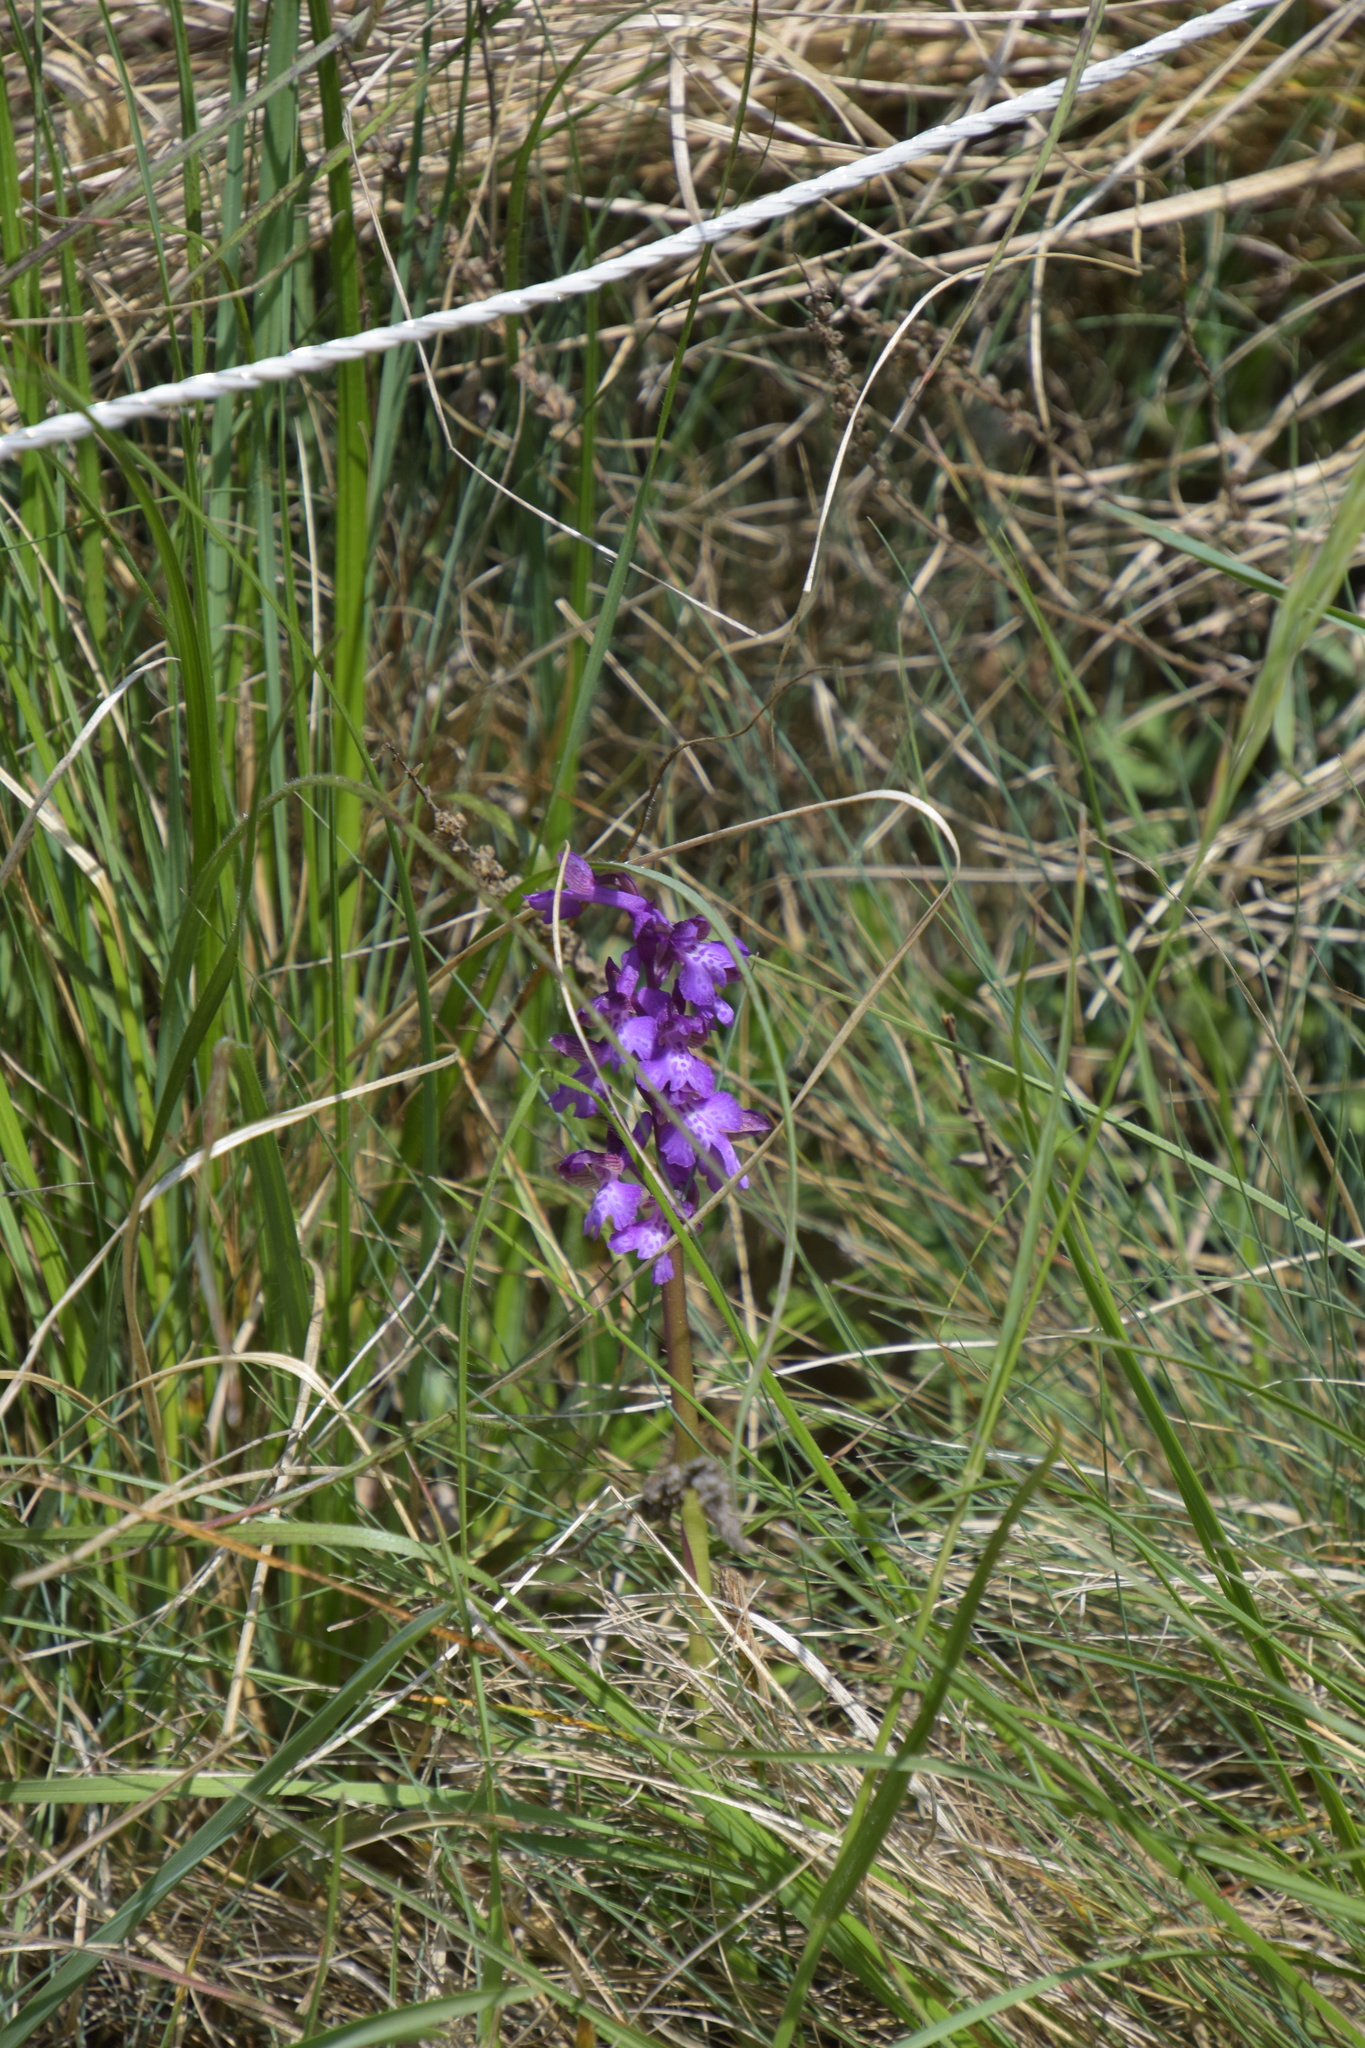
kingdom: Plantae
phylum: Tracheophyta
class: Liliopsida
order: Asparagales
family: Orchidaceae
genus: Anacamptis
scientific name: Anacamptis morio
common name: Green-winged orchid
